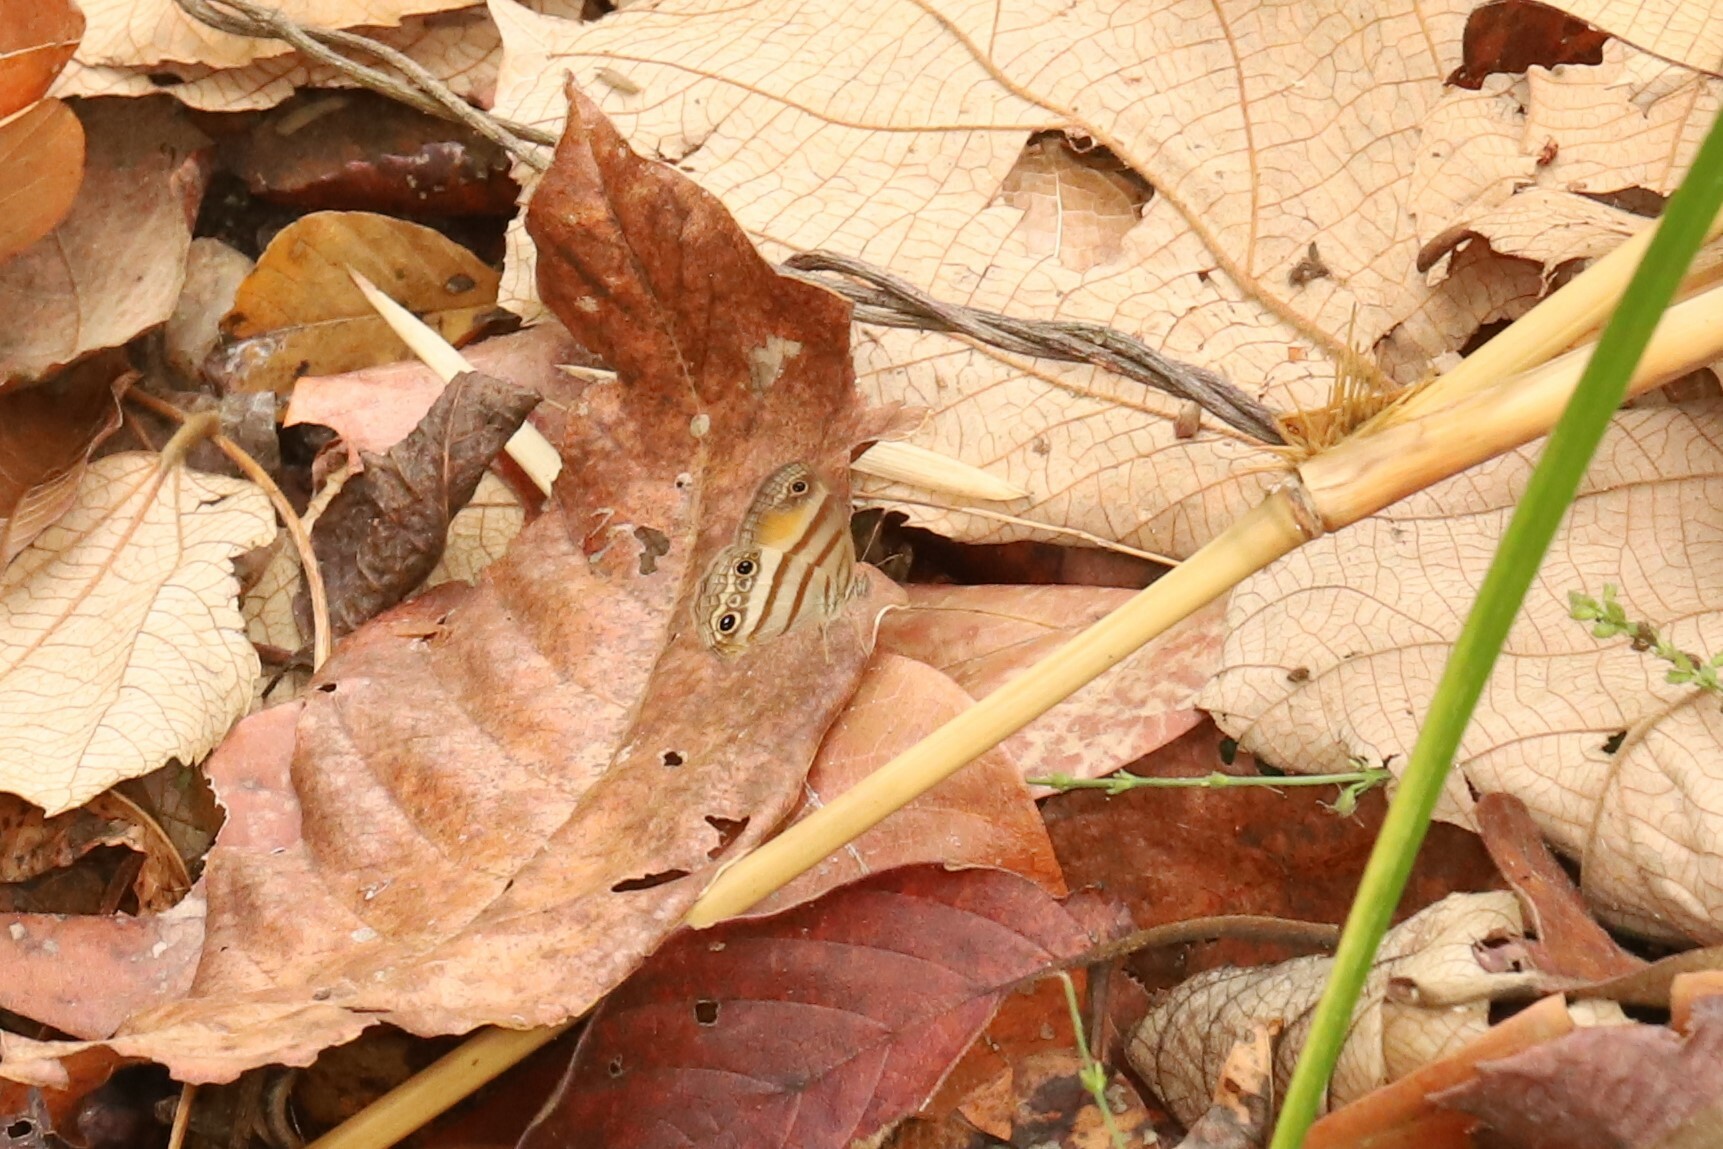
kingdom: Animalia
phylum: Arthropoda
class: Insecta
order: Lepidoptera
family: Nymphalidae
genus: Paryphthimoides
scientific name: Paryphthimoides
